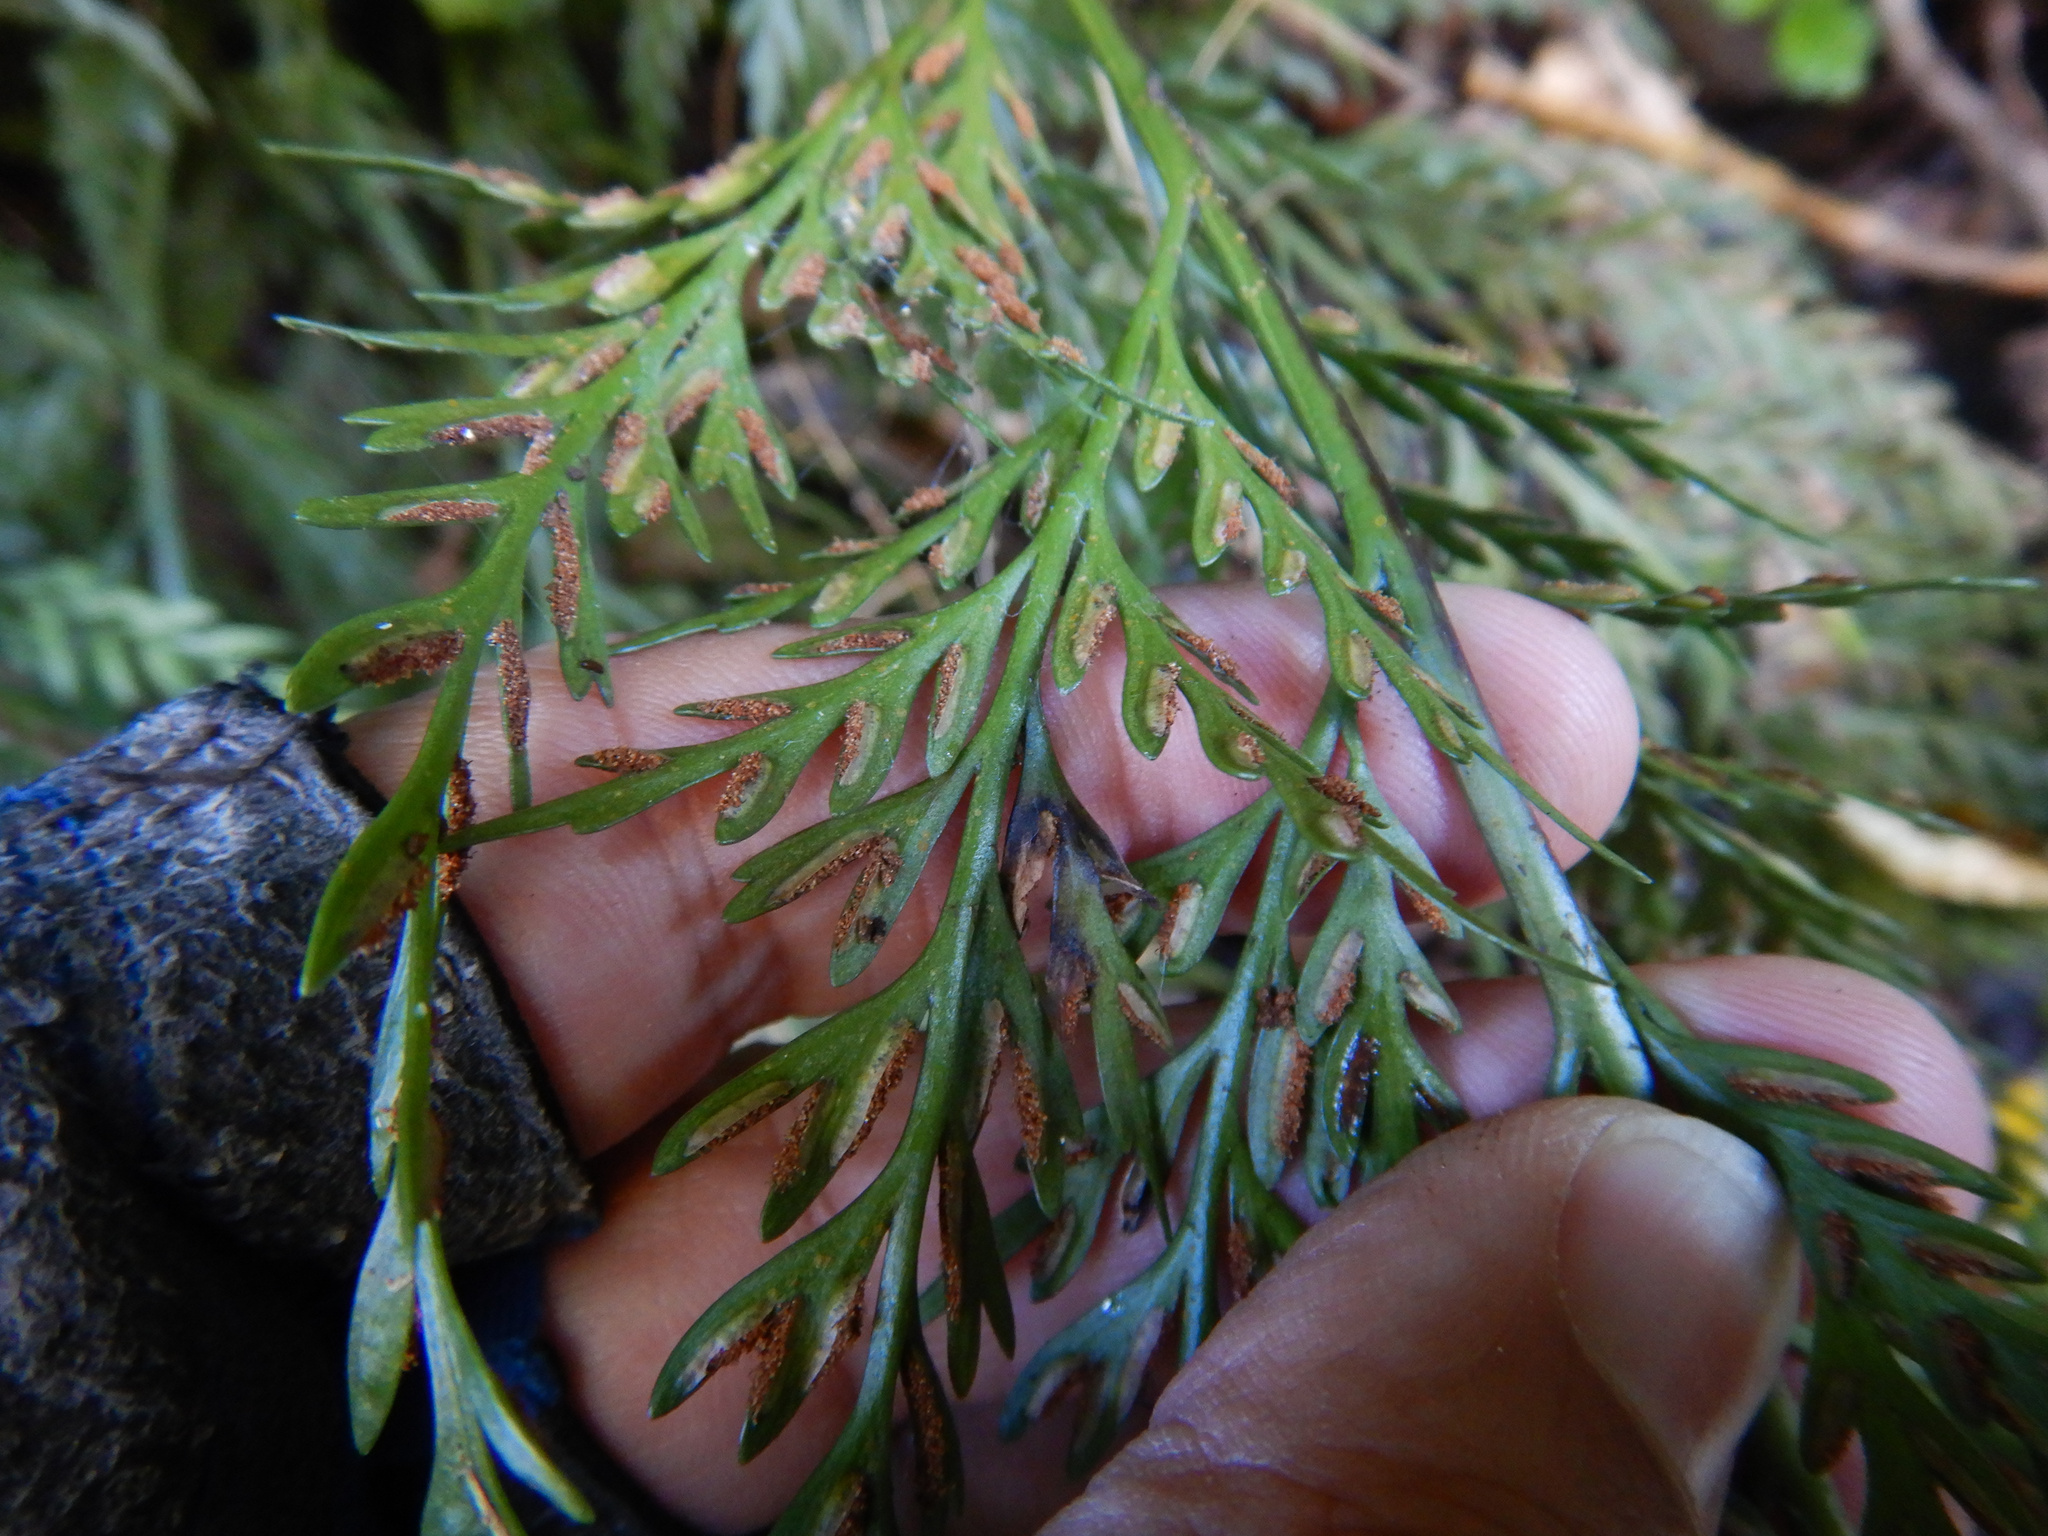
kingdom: Plantae
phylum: Tracheophyta
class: Polypodiopsida
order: Polypodiales
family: Aspleniaceae
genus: Asplenium
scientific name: Asplenium flaccidum
